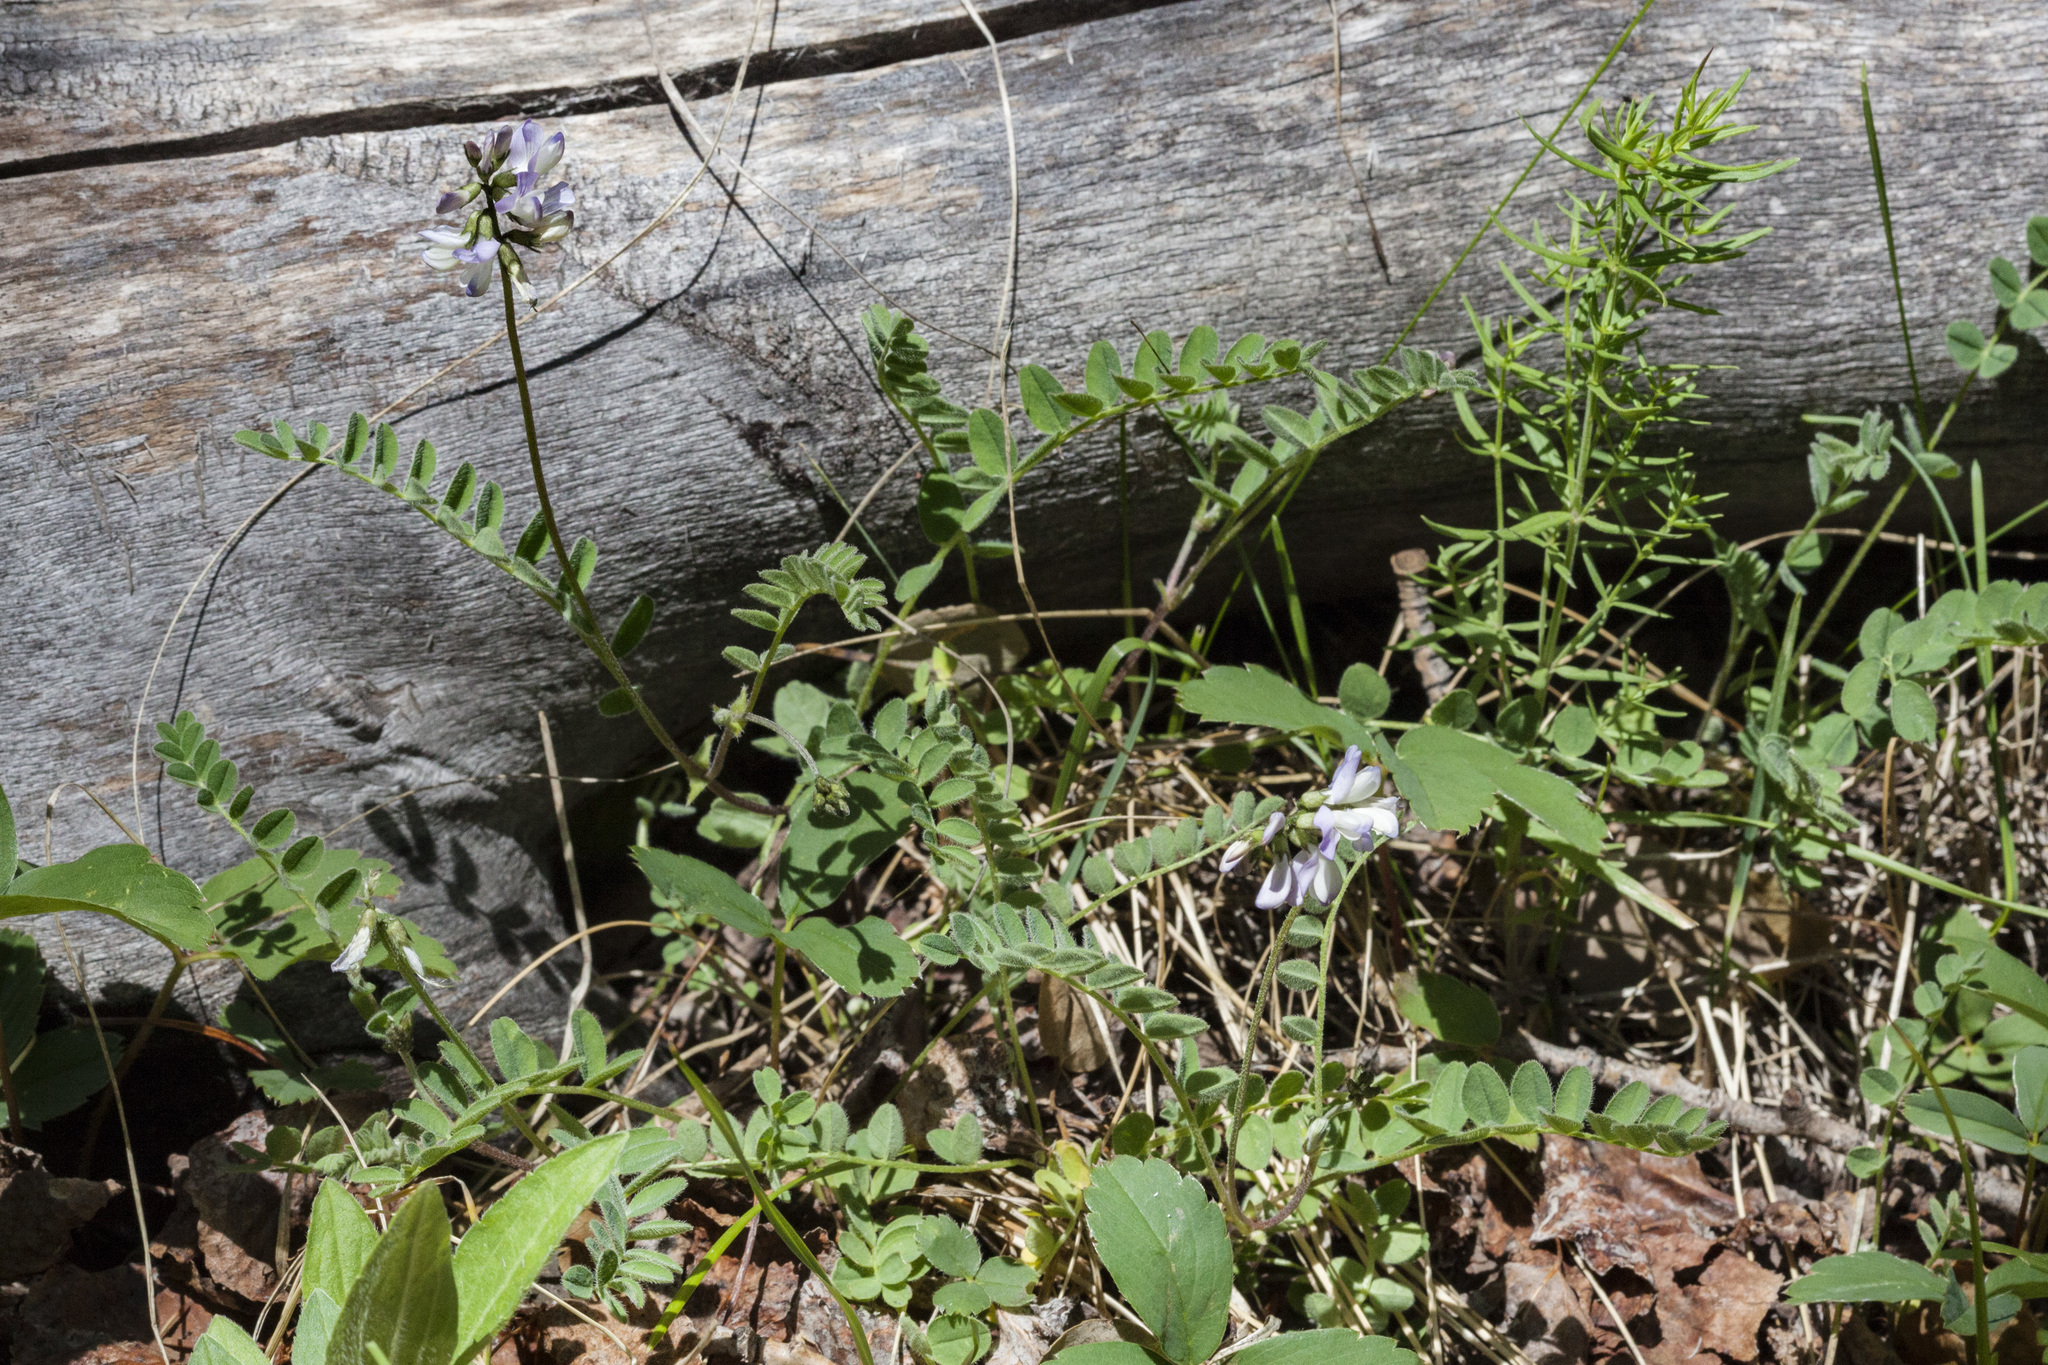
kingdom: Plantae
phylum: Tracheophyta
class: Magnoliopsida
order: Fabales
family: Fabaceae
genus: Astragalus
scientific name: Astragalus alpinus
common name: Alpine milk-vetch
